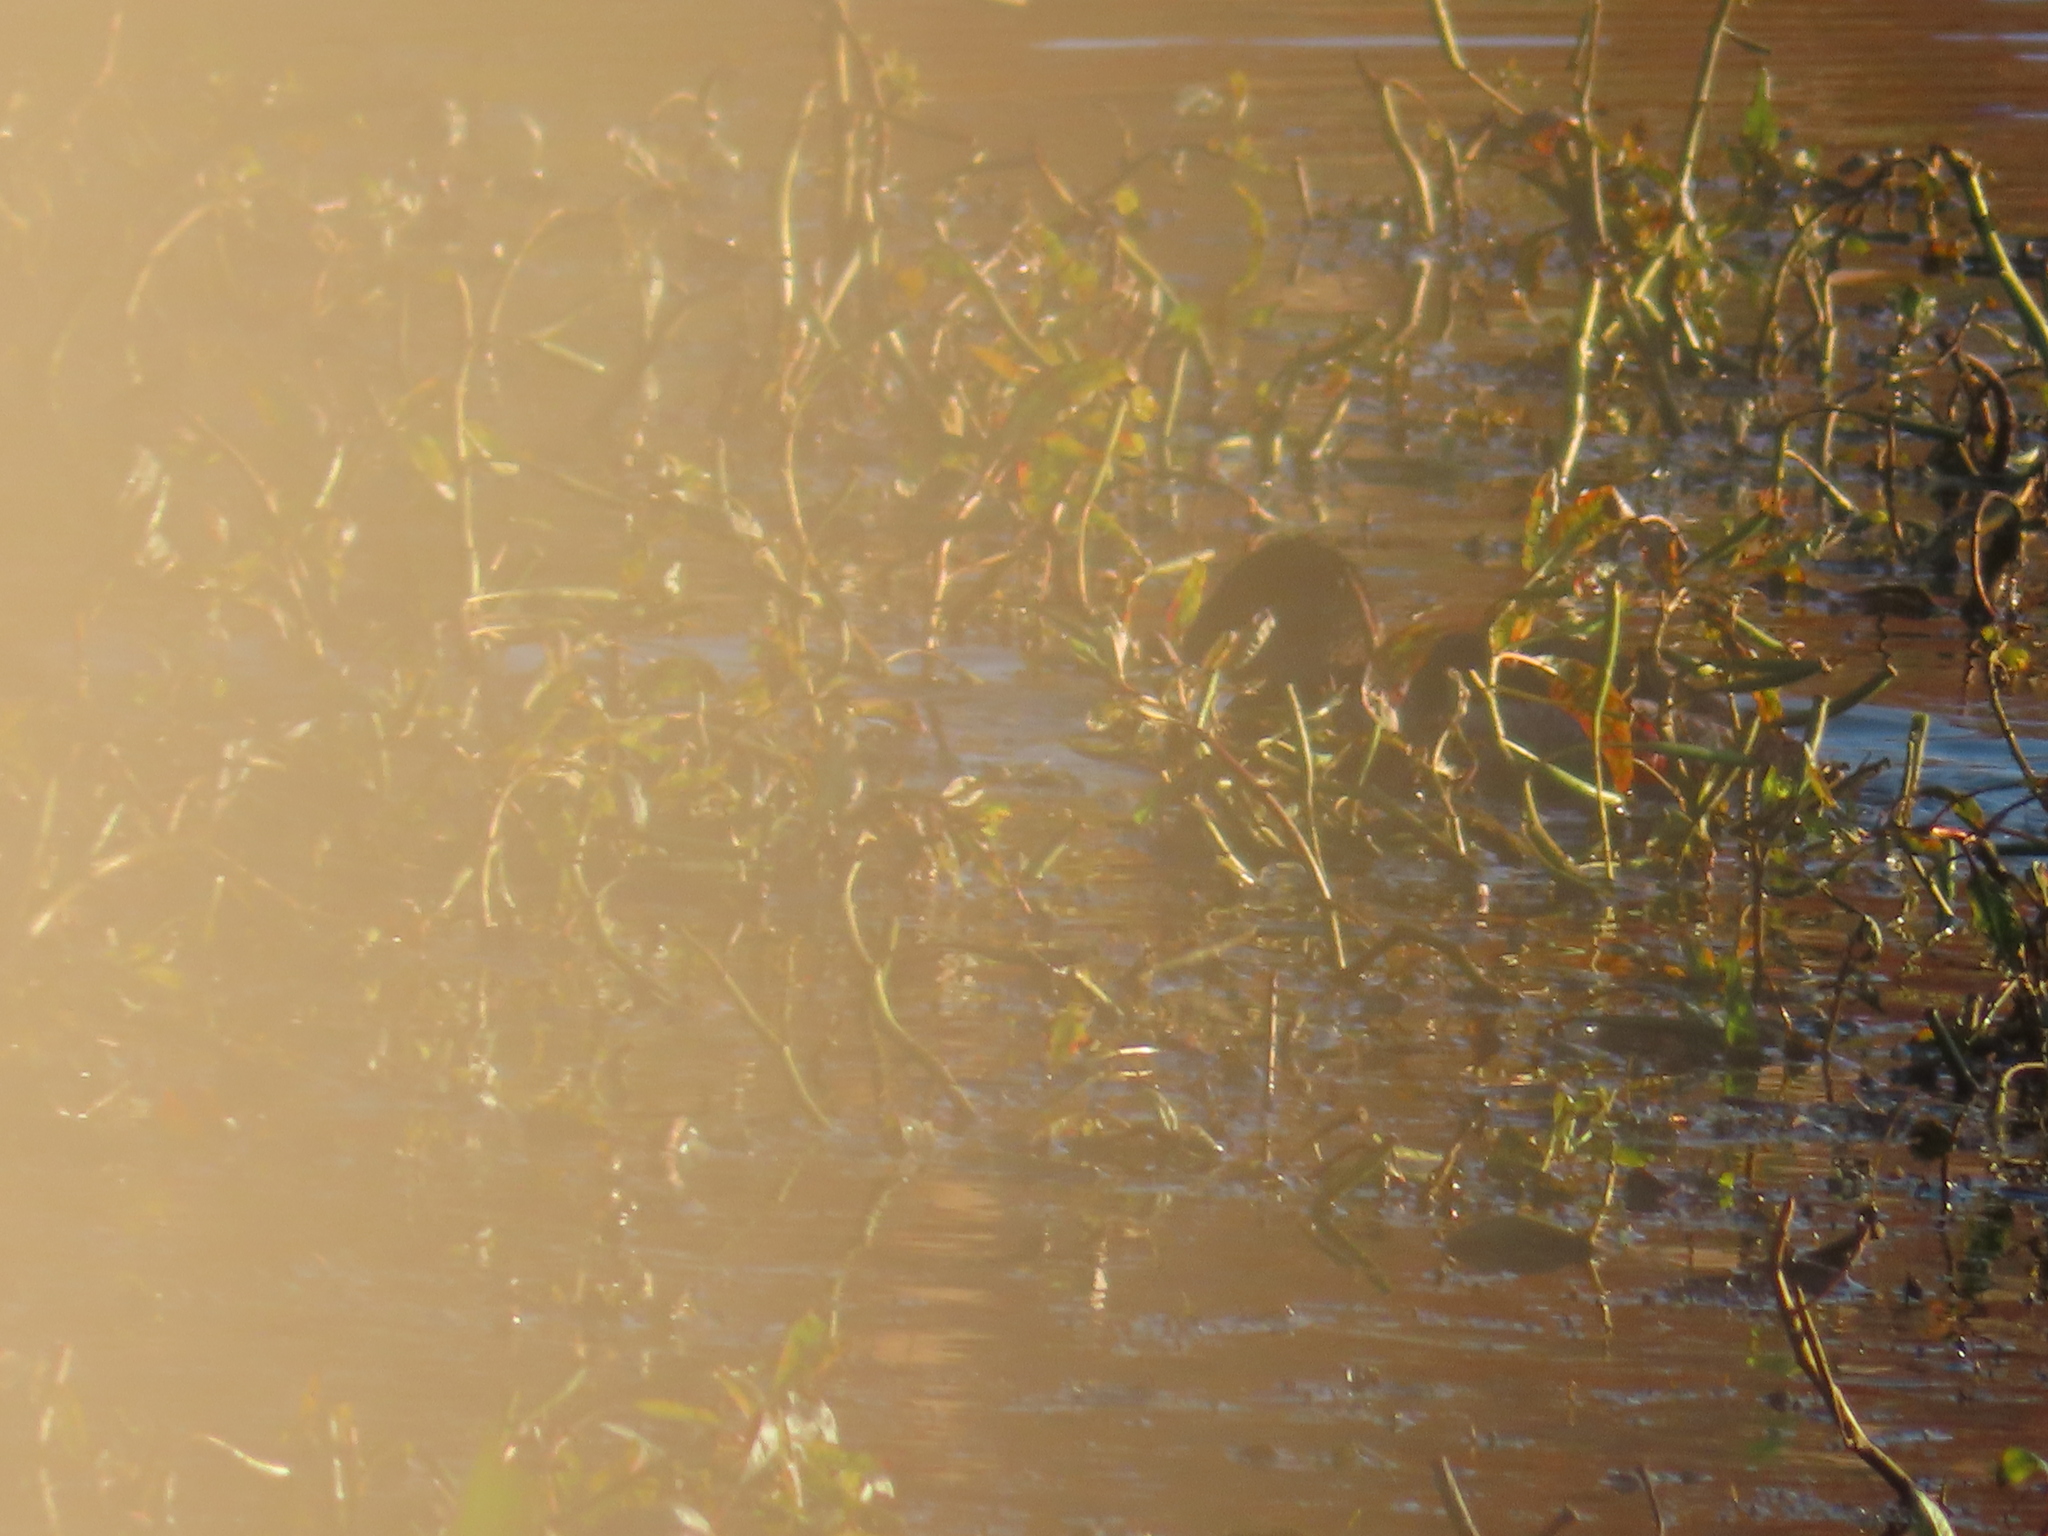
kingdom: Animalia
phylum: Chordata
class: Aves
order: Anseriformes
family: Anatidae
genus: Oxyura
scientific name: Oxyura jamaicensis
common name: Ruddy duck
